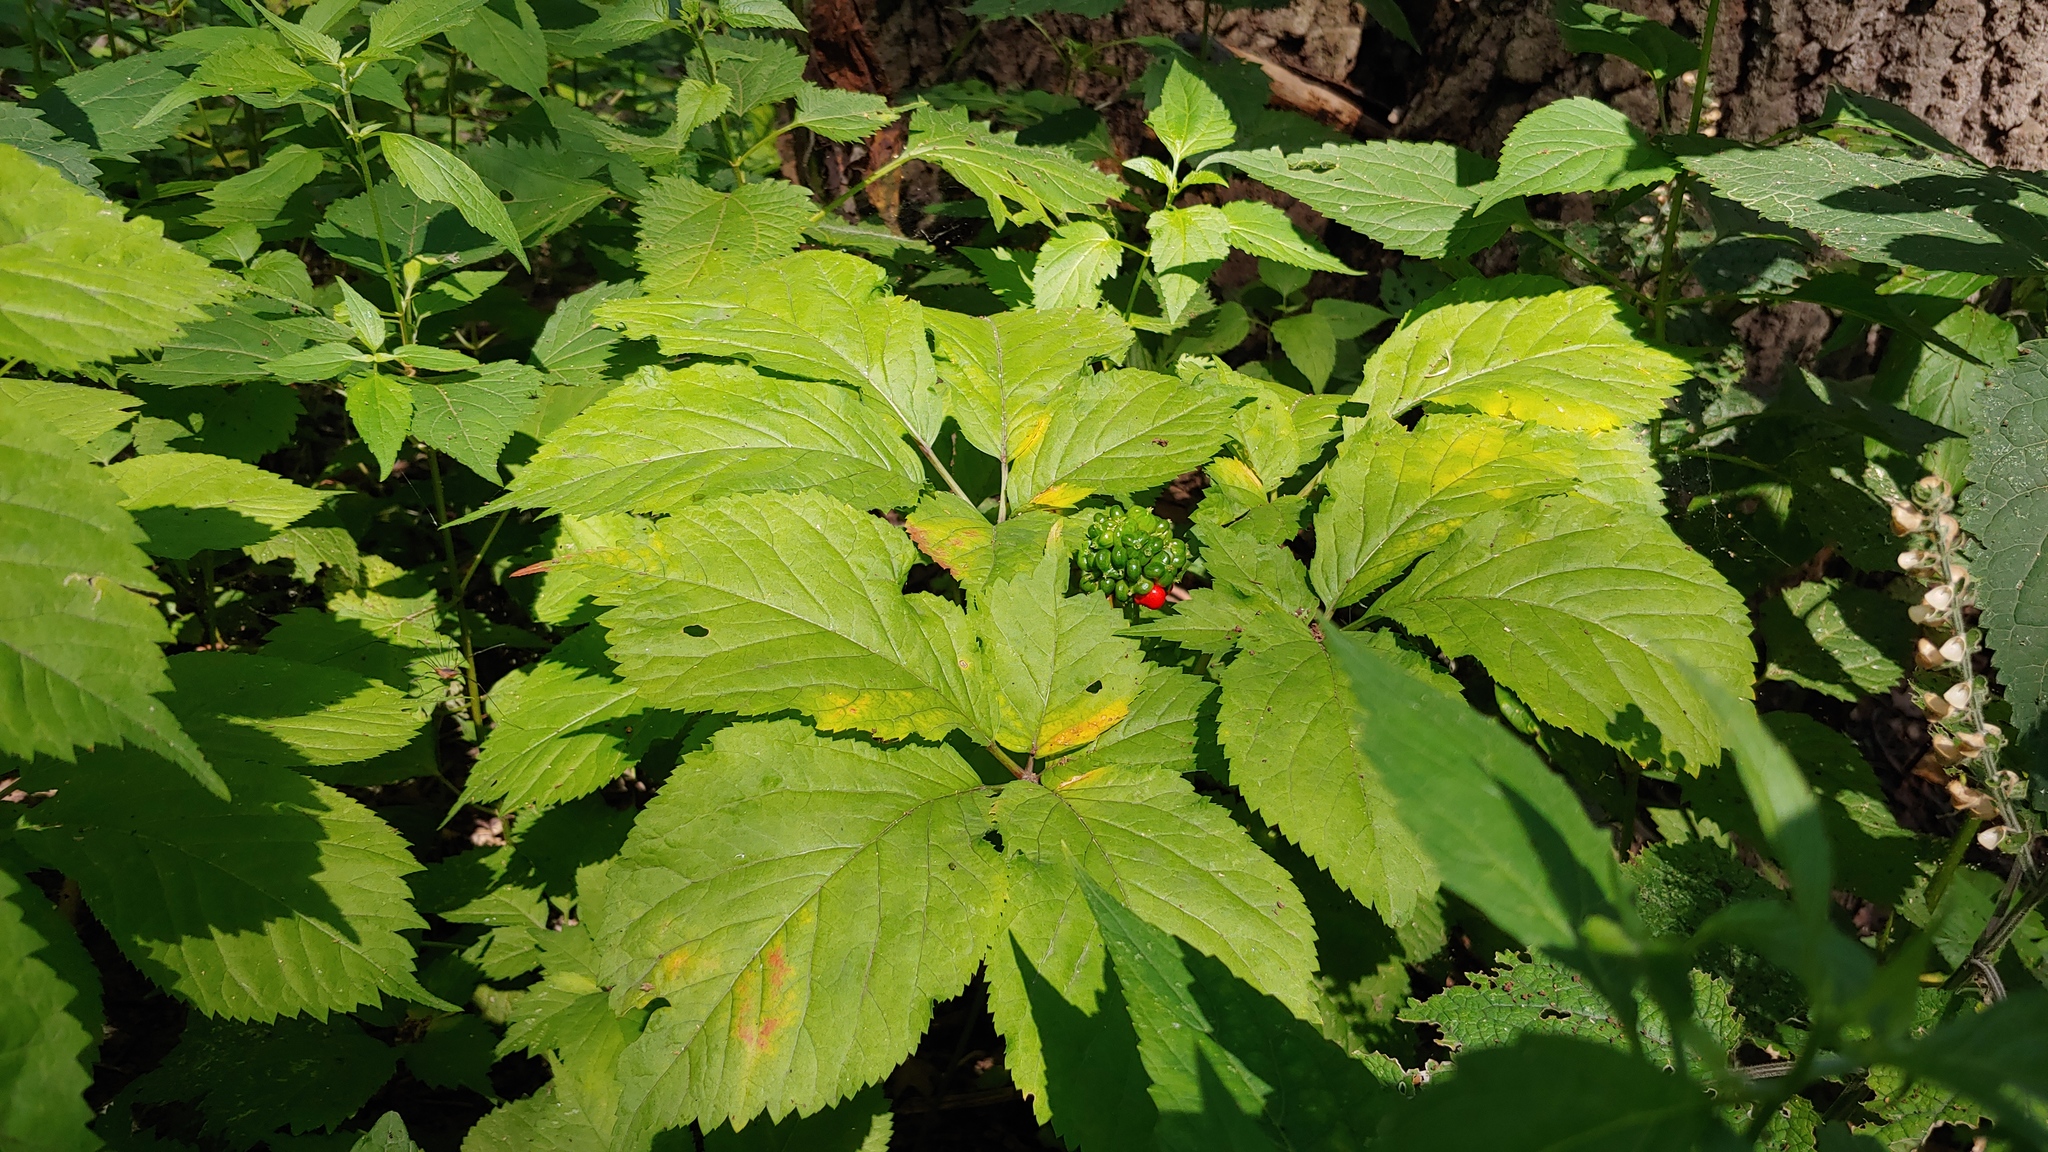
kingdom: Plantae
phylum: Tracheophyta
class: Magnoliopsida
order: Apiales
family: Araliaceae
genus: Panax
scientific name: Panax quinquefolius
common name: American ginseng
